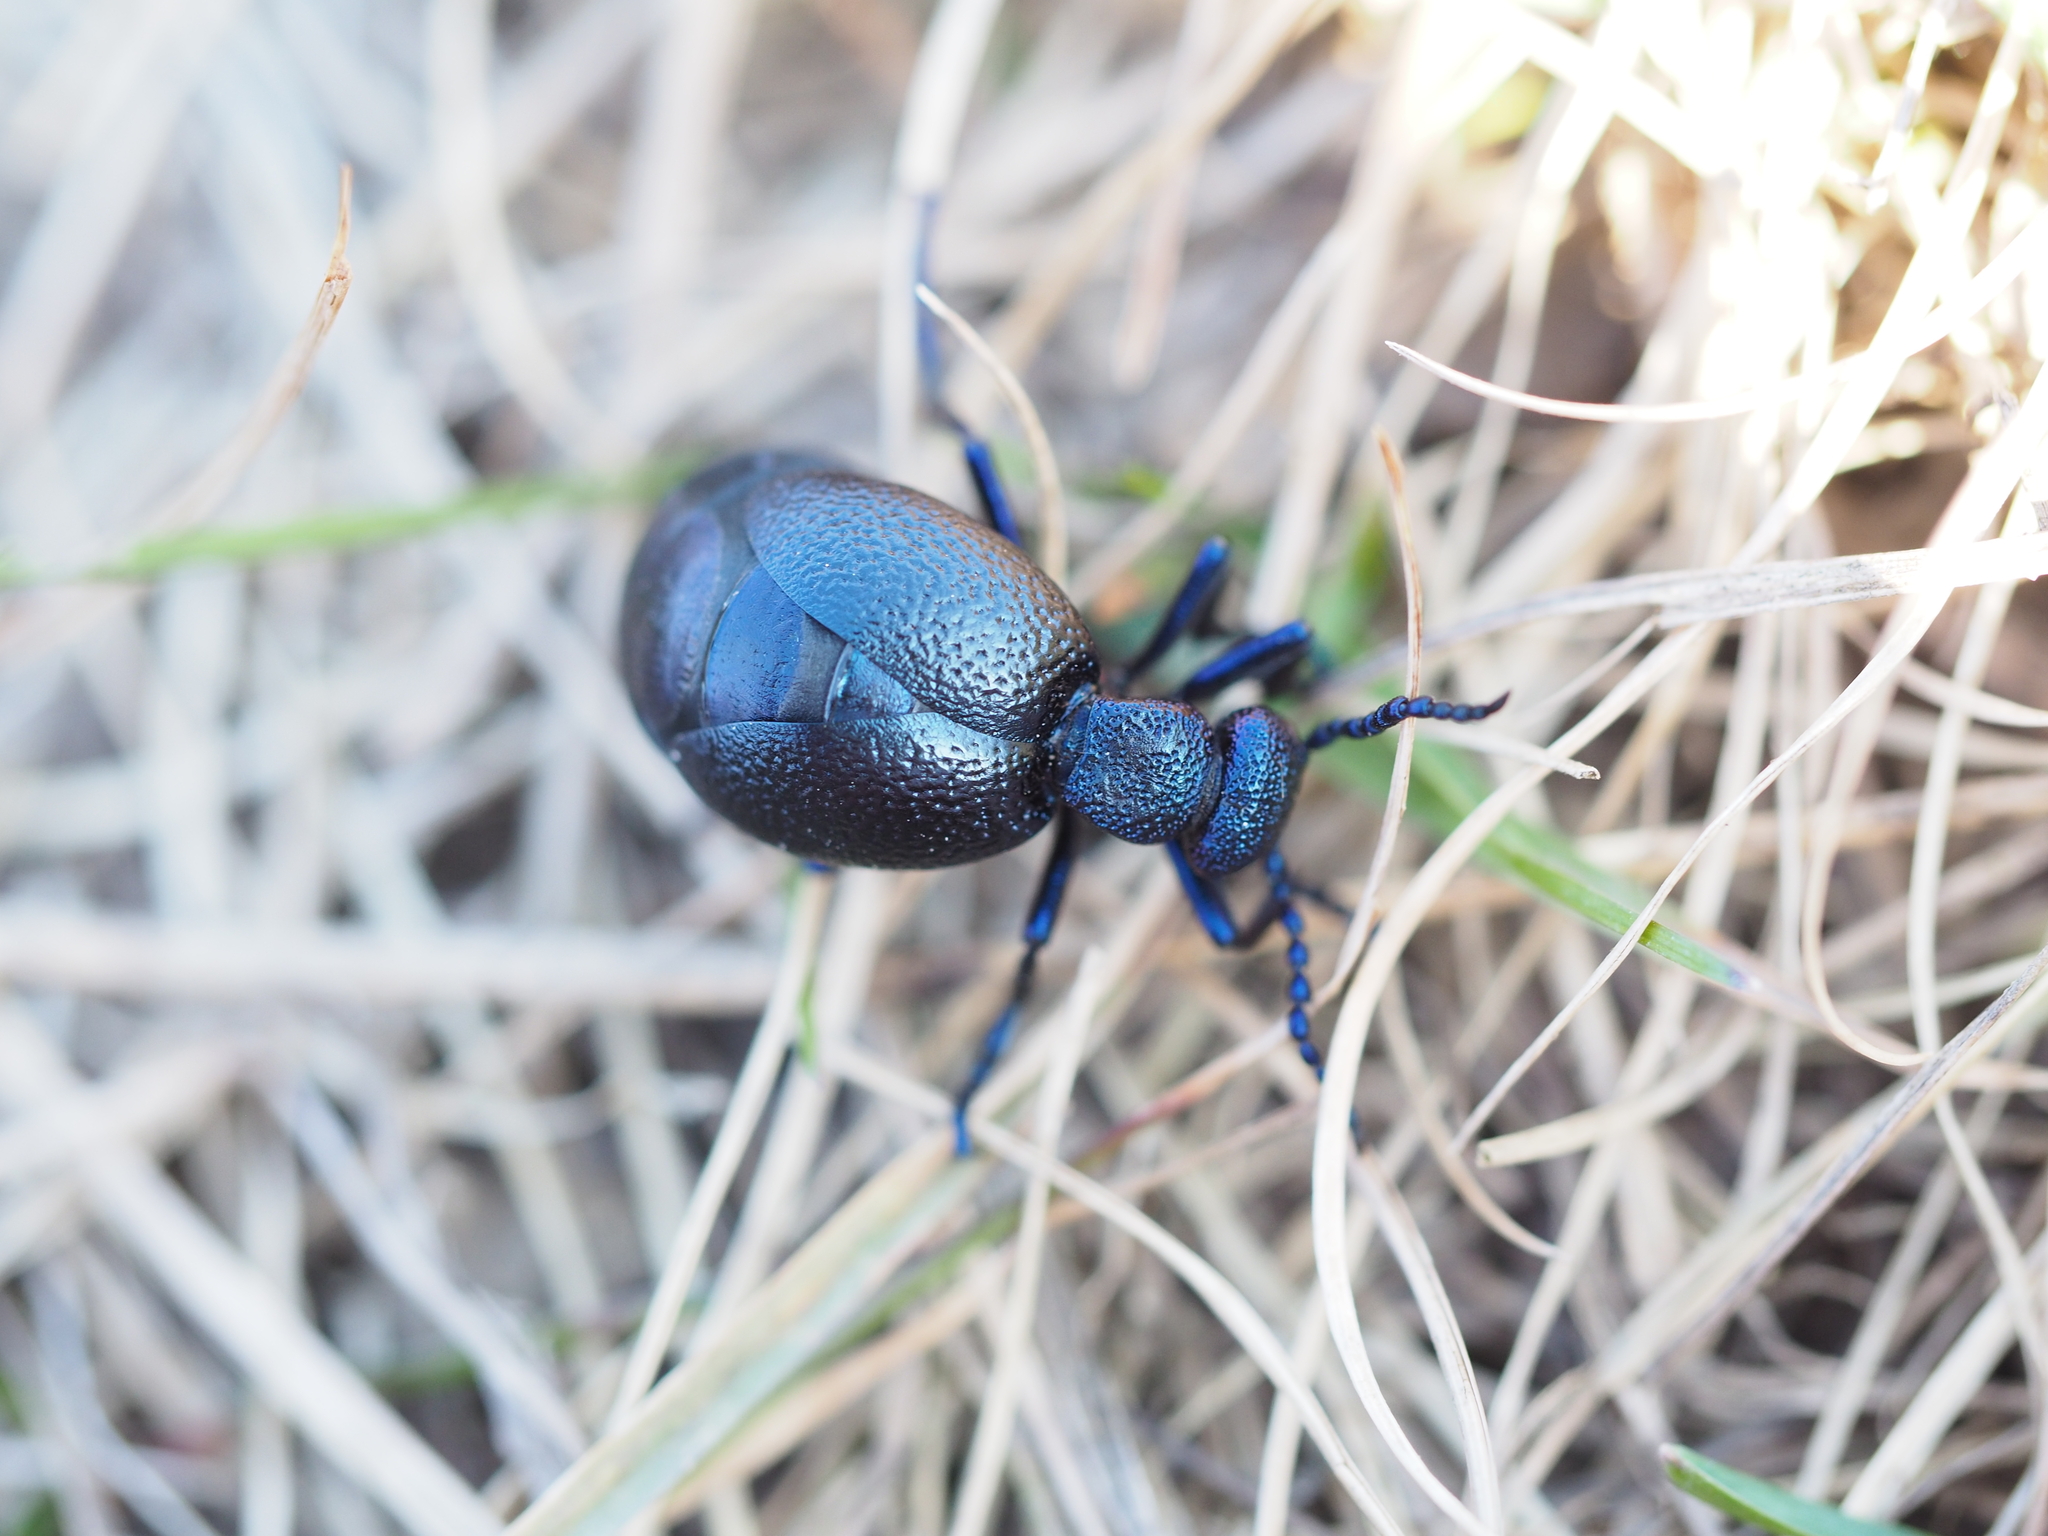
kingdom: Animalia
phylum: Arthropoda
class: Insecta
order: Coleoptera
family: Meloidae
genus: Meloe
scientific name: Meloe proscarabaeus
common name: Black oil-beetle
